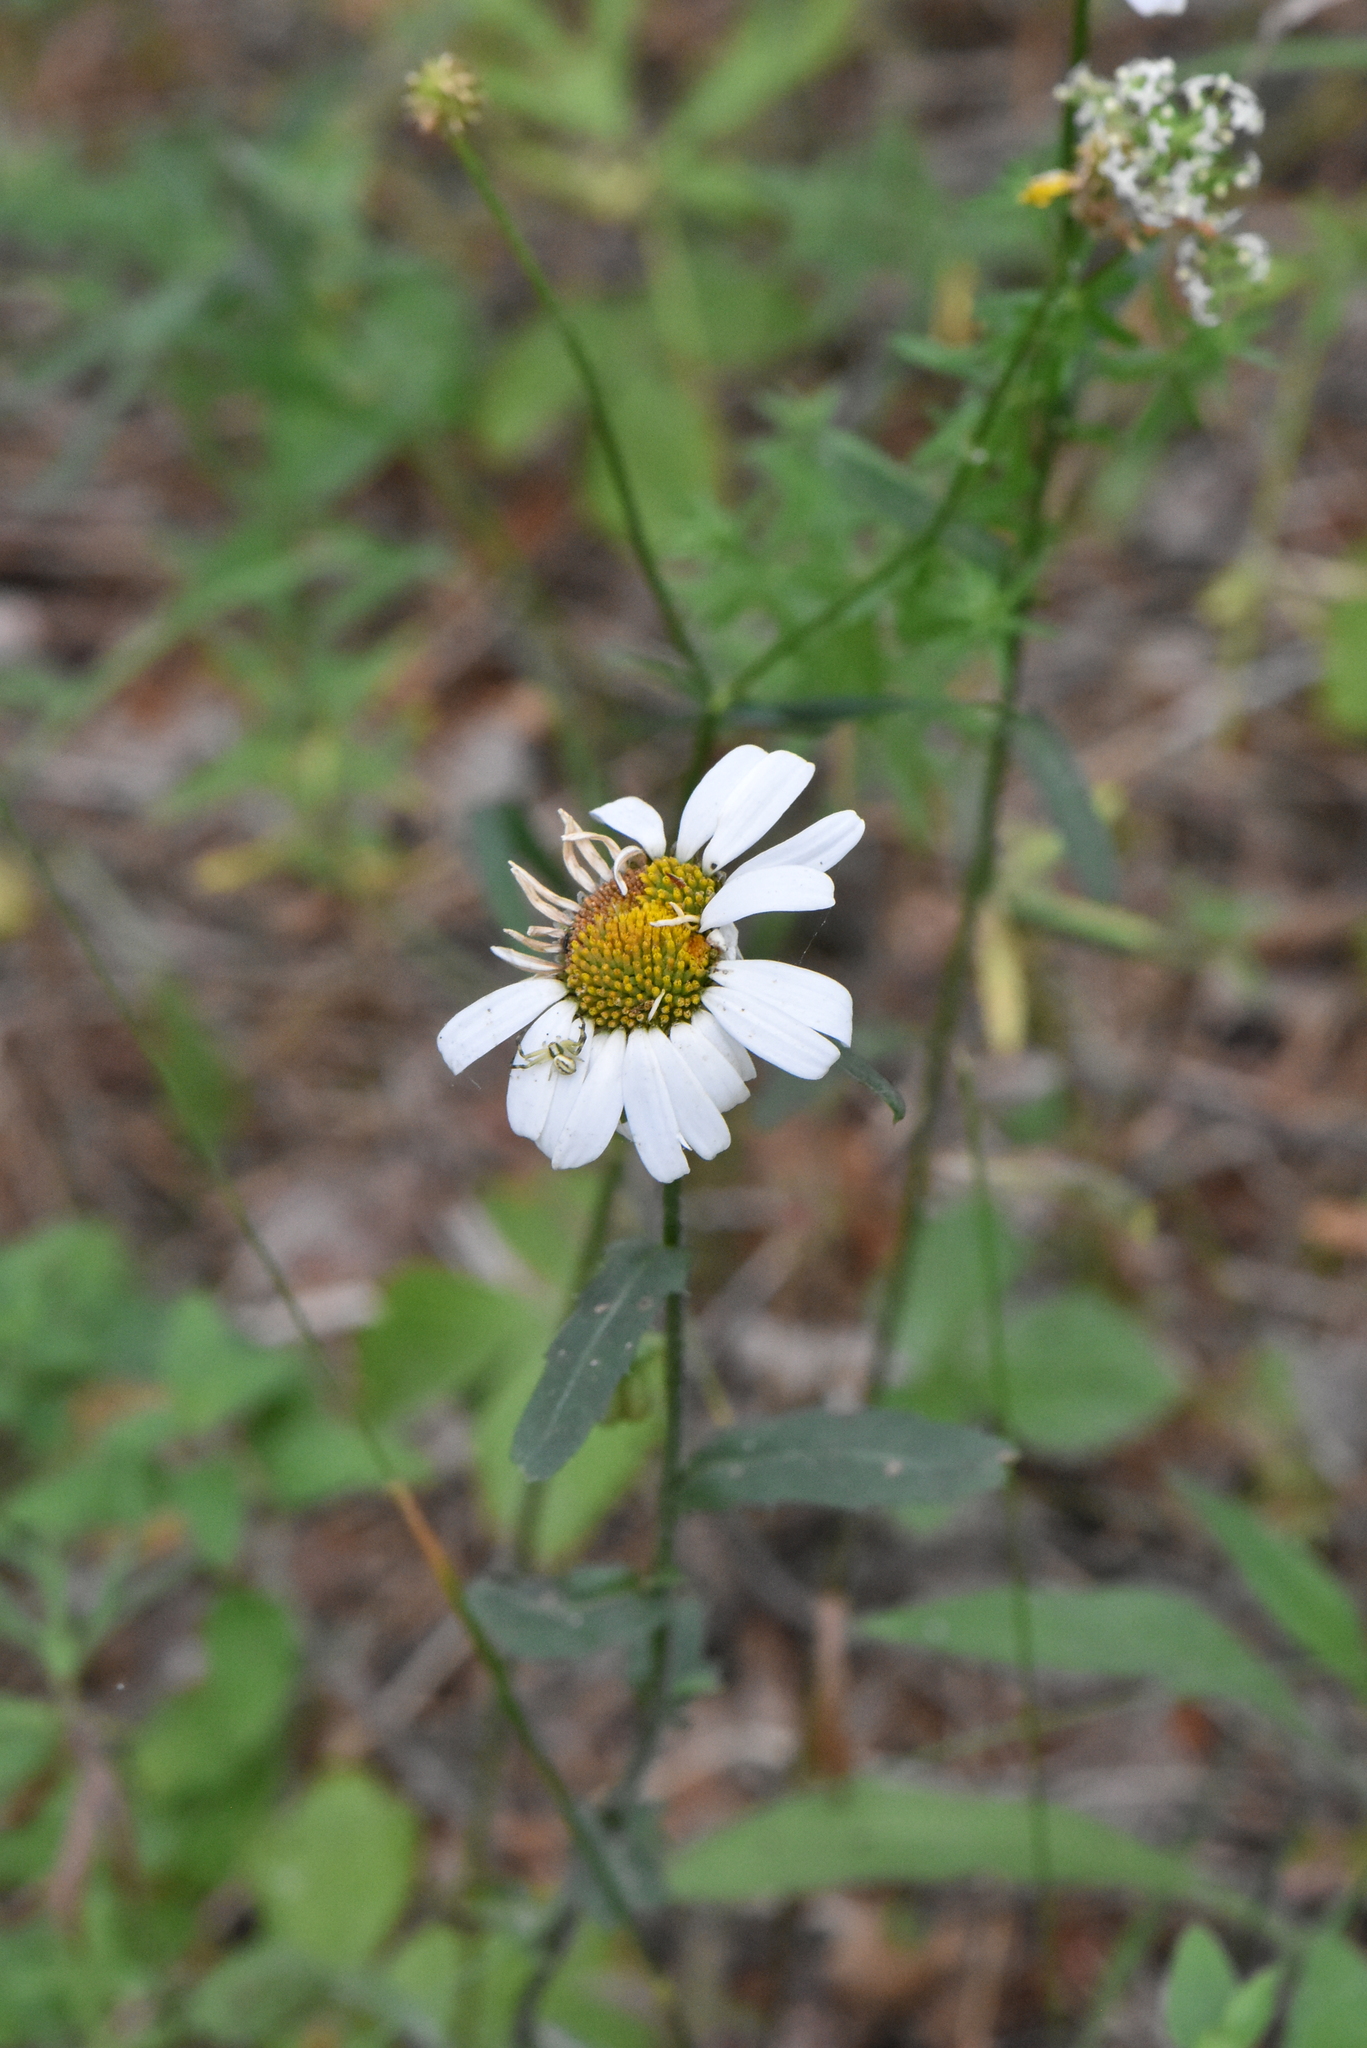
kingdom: Plantae
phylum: Tracheophyta
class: Magnoliopsida
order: Asterales
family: Asteraceae
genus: Leucanthemum
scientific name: Leucanthemum vulgare
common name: Oxeye daisy
